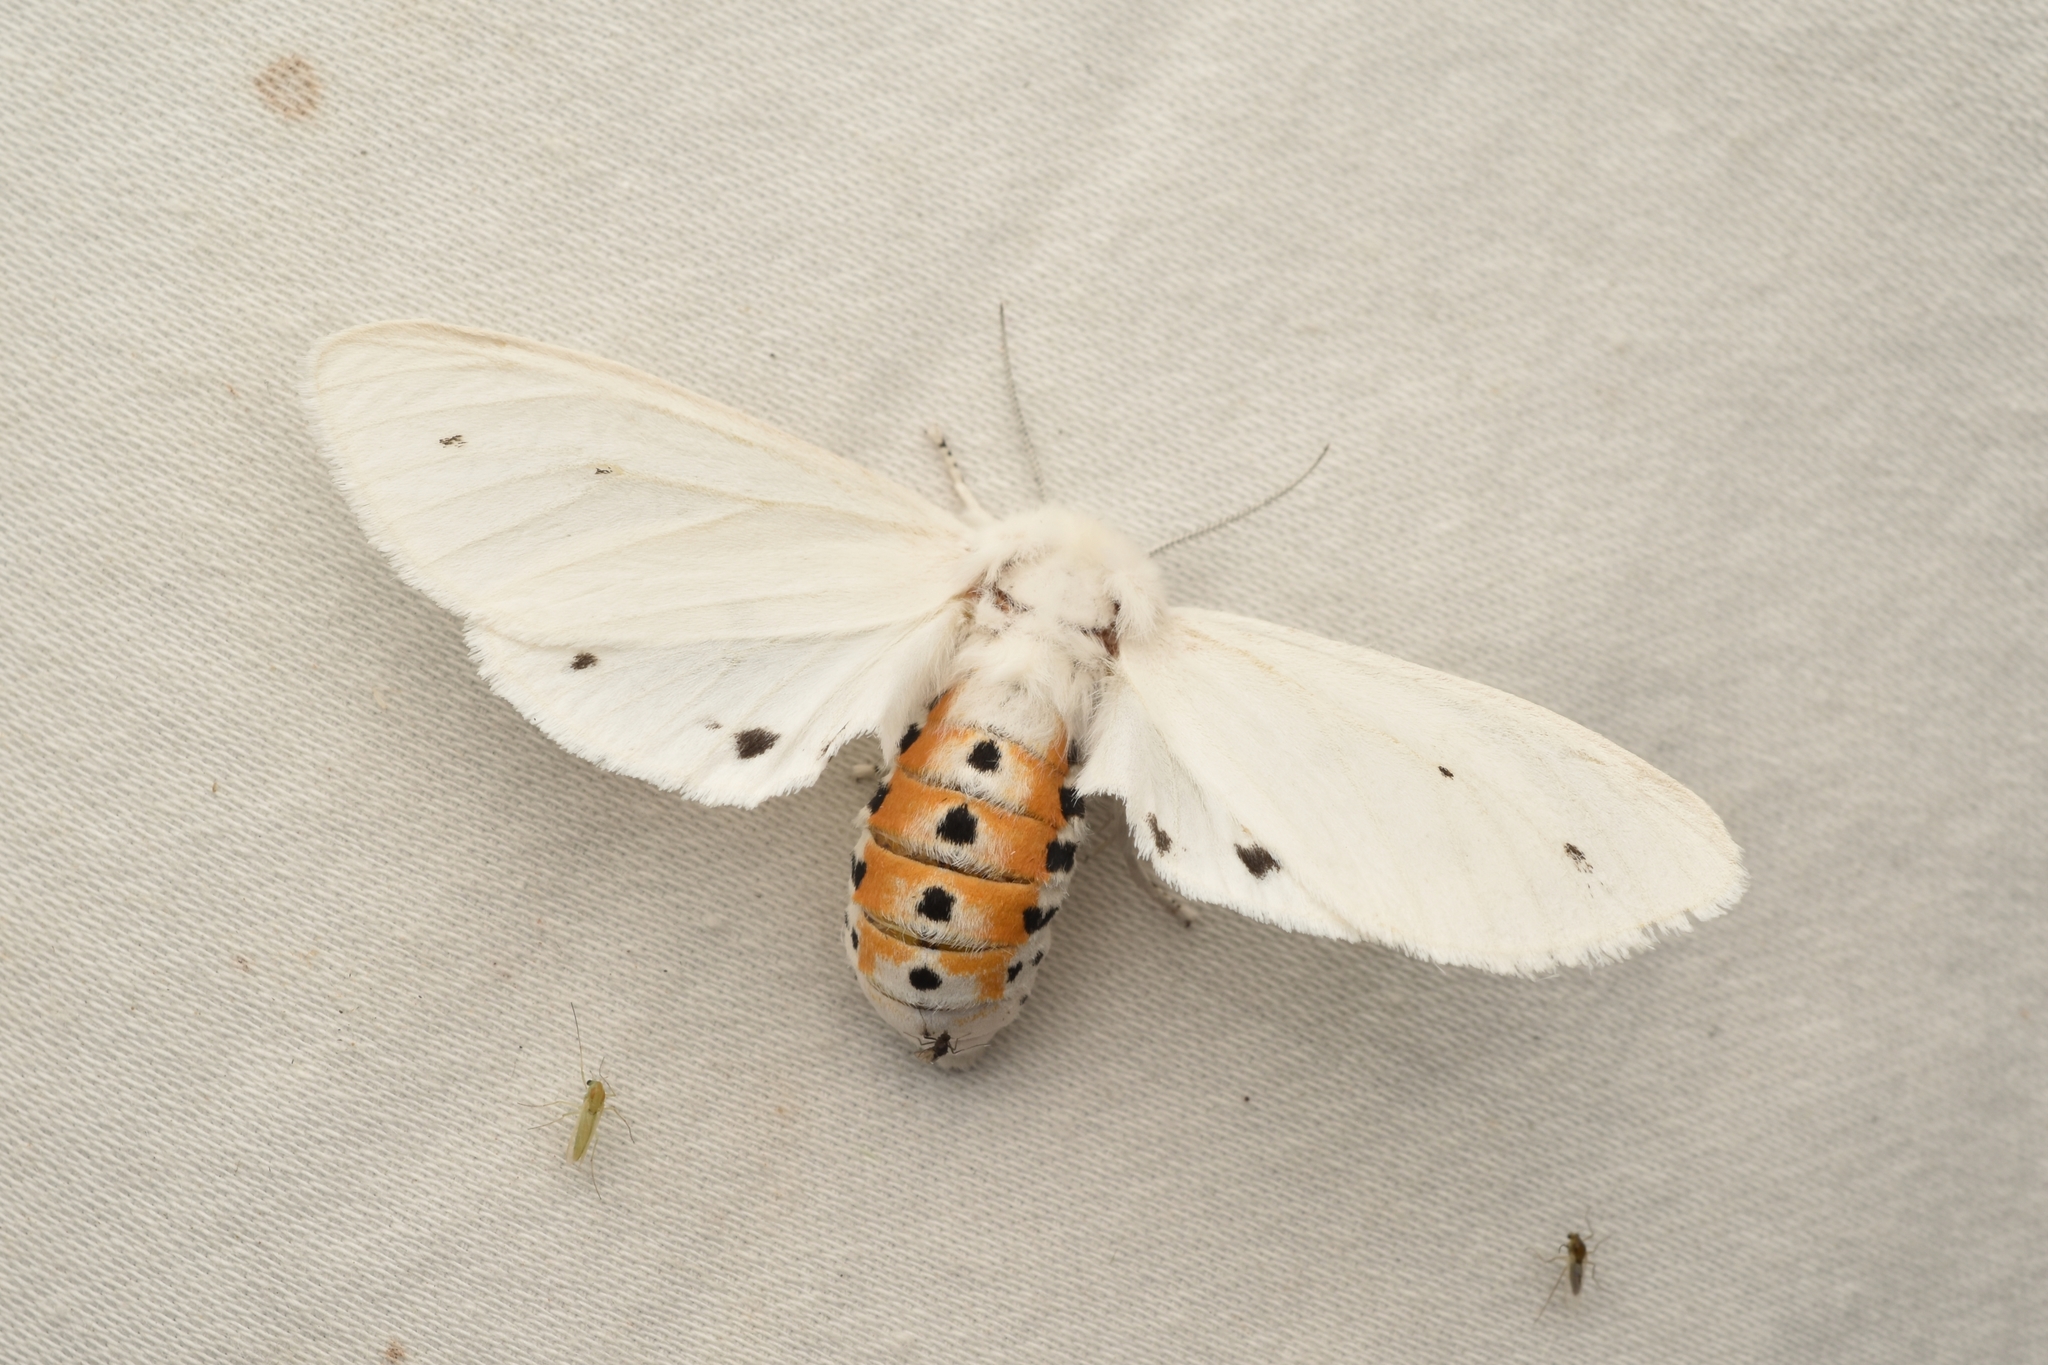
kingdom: Animalia
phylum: Arthropoda
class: Insecta
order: Lepidoptera
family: Erebidae
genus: Spilosoma
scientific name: Spilosoma virginica
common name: Virginia tiger moth
